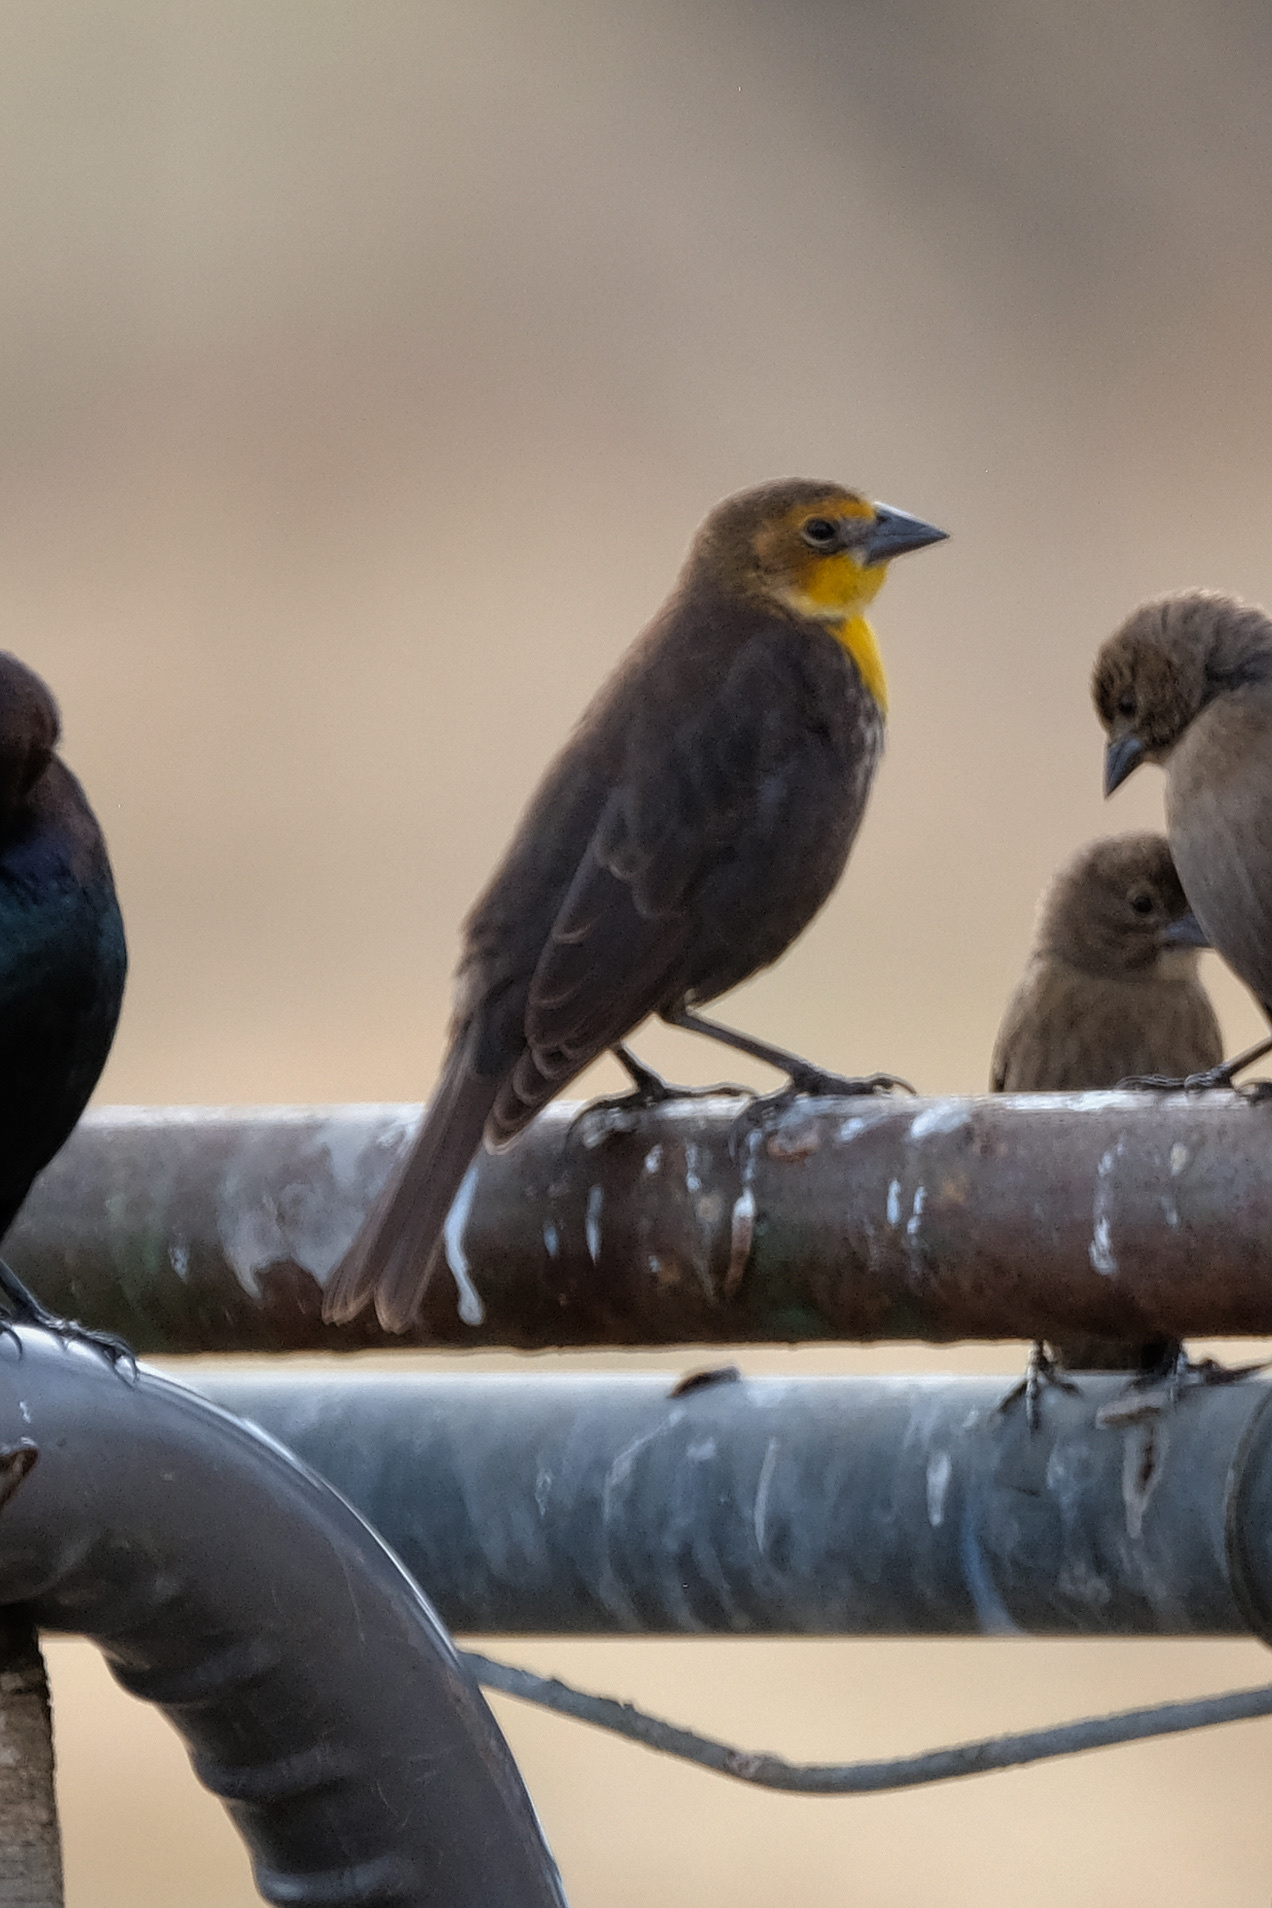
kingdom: Animalia
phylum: Chordata
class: Aves
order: Passeriformes
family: Icteridae
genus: Xanthocephalus
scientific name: Xanthocephalus xanthocephalus
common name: Yellow-headed blackbird
